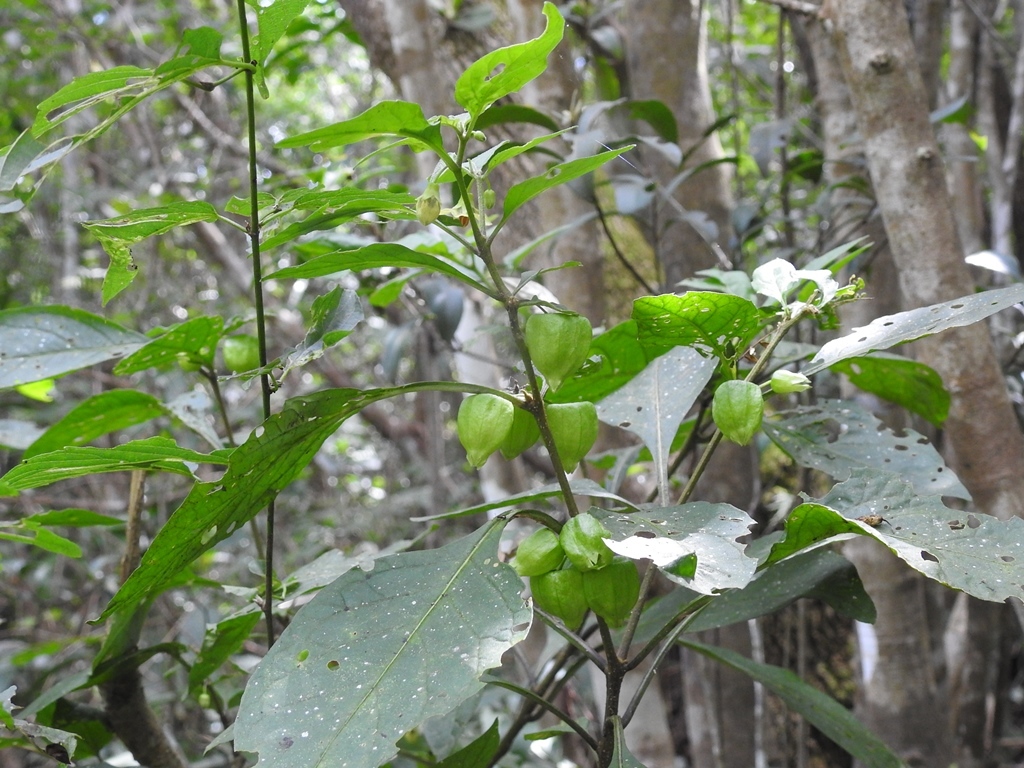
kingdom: Plantae
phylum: Tracheophyta
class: Magnoliopsida
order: Solanales
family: Solanaceae
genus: Physalis
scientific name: Physalis campechiana
